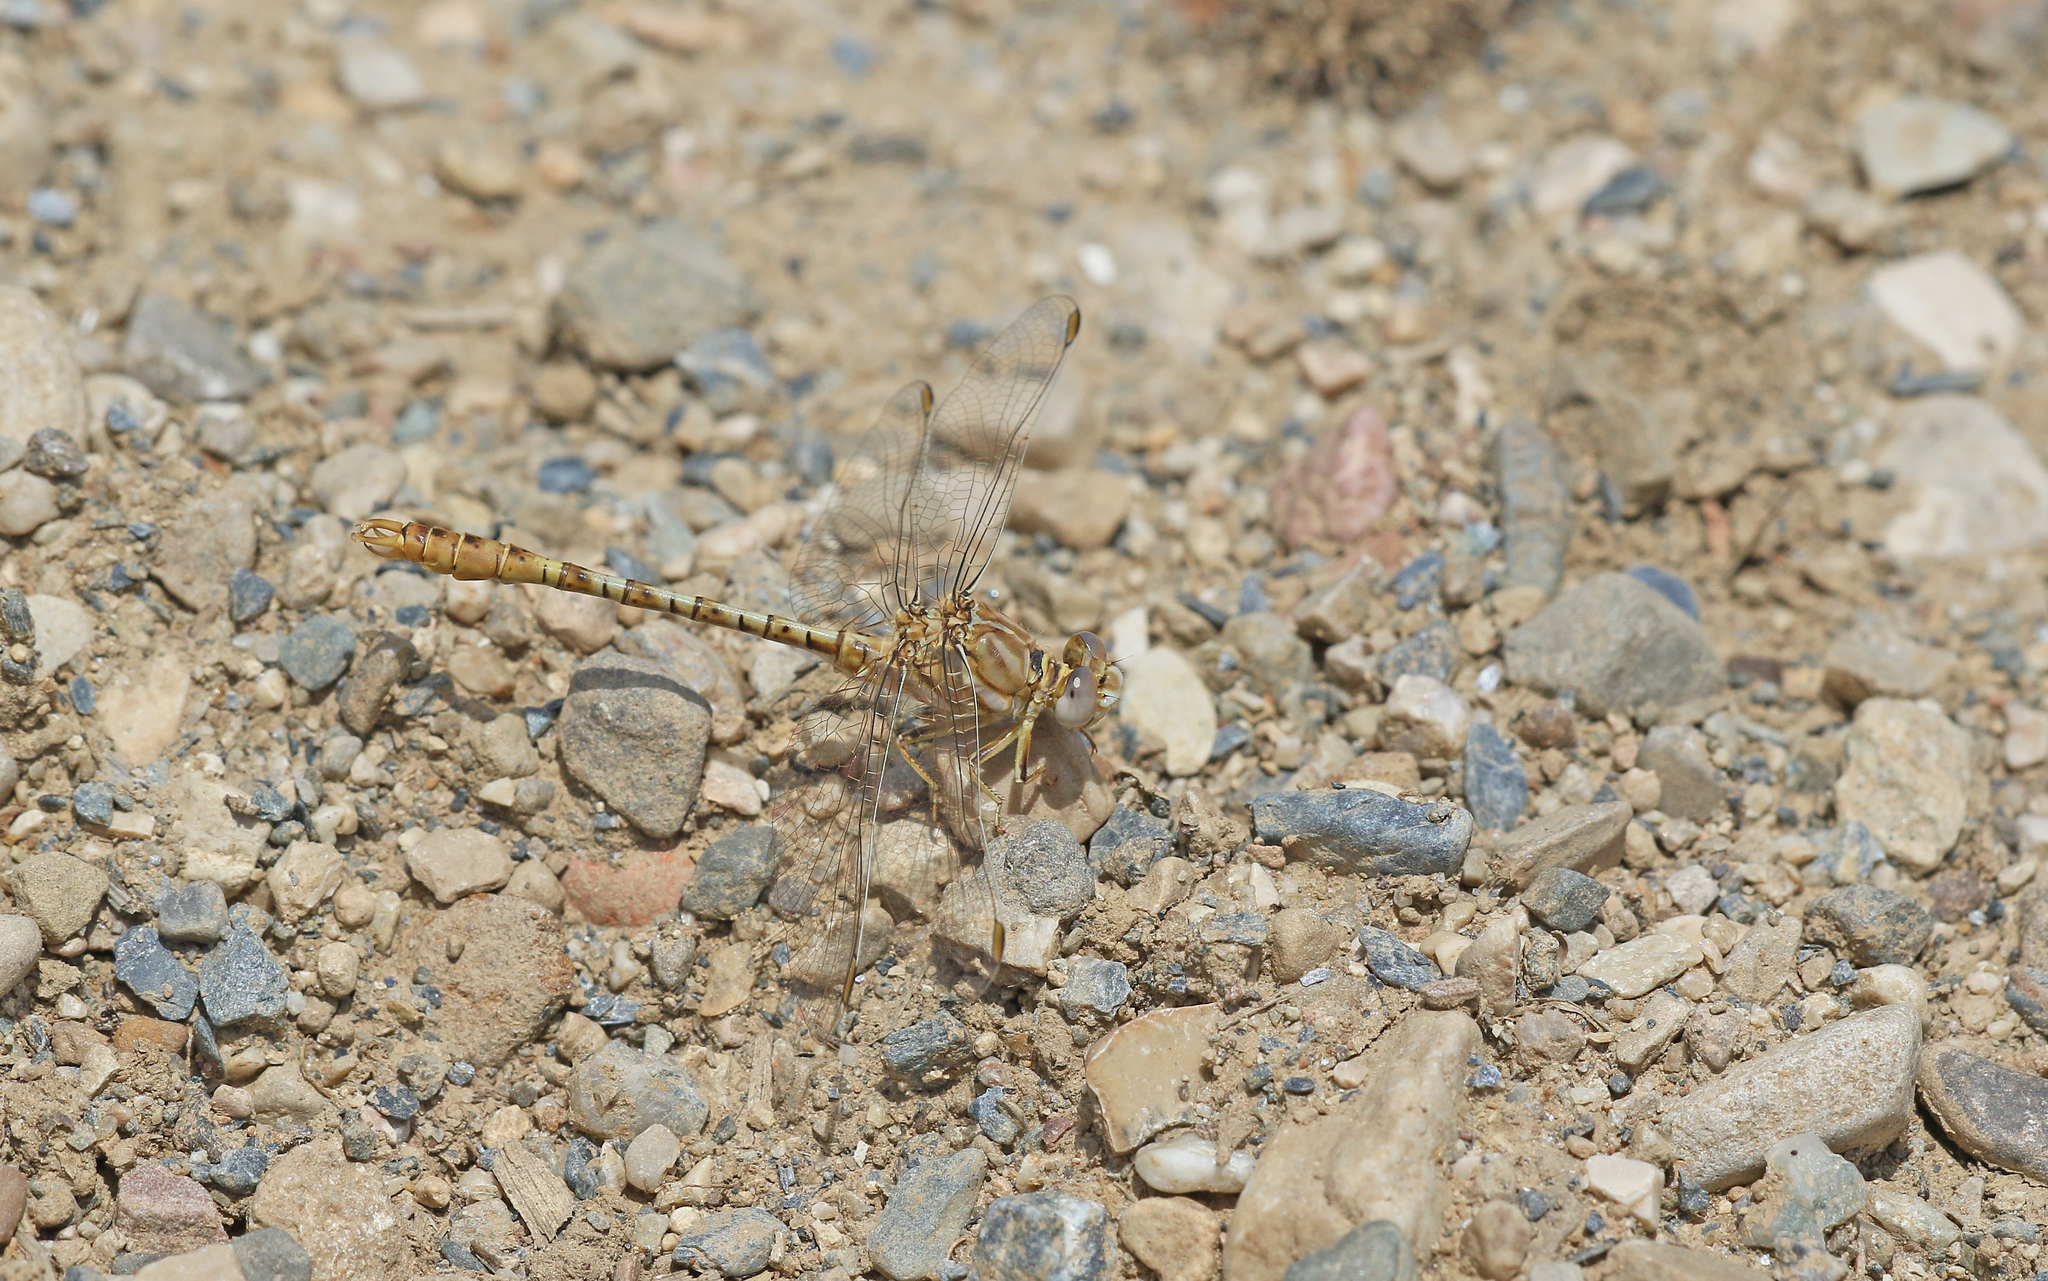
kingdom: Animalia
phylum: Arthropoda
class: Insecta
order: Odonata
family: Gomphidae
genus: Onychogomphus
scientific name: Onychogomphus costae
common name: Faded pincertail
